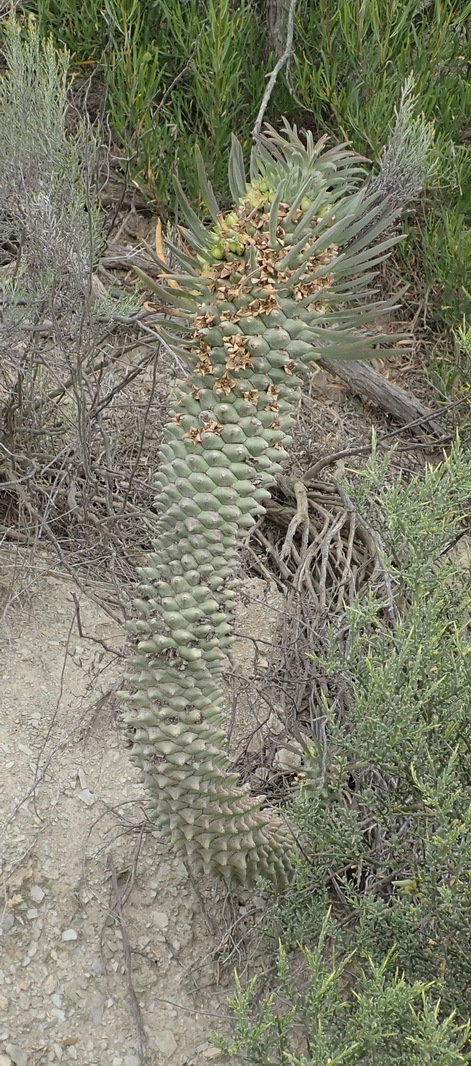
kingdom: Plantae
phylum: Tracheophyta
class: Magnoliopsida
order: Malpighiales
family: Euphorbiaceae
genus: Euphorbia
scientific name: Euphorbia clandestina
